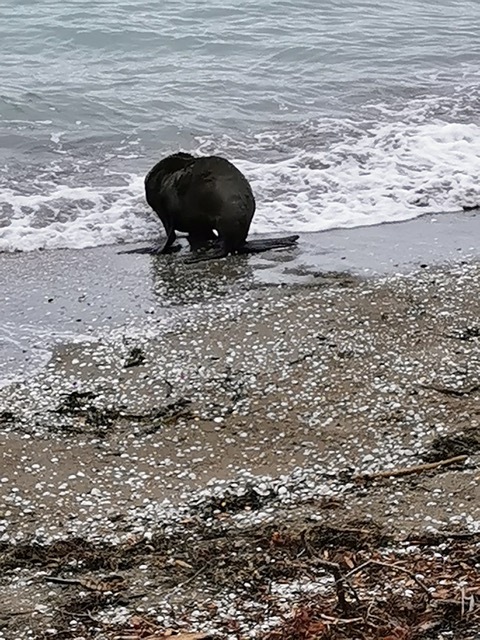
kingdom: Animalia
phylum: Chordata
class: Mammalia
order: Carnivora
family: Otariidae
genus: Arctocephalus
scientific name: Arctocephalus forsteri
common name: New zealand fur seal
